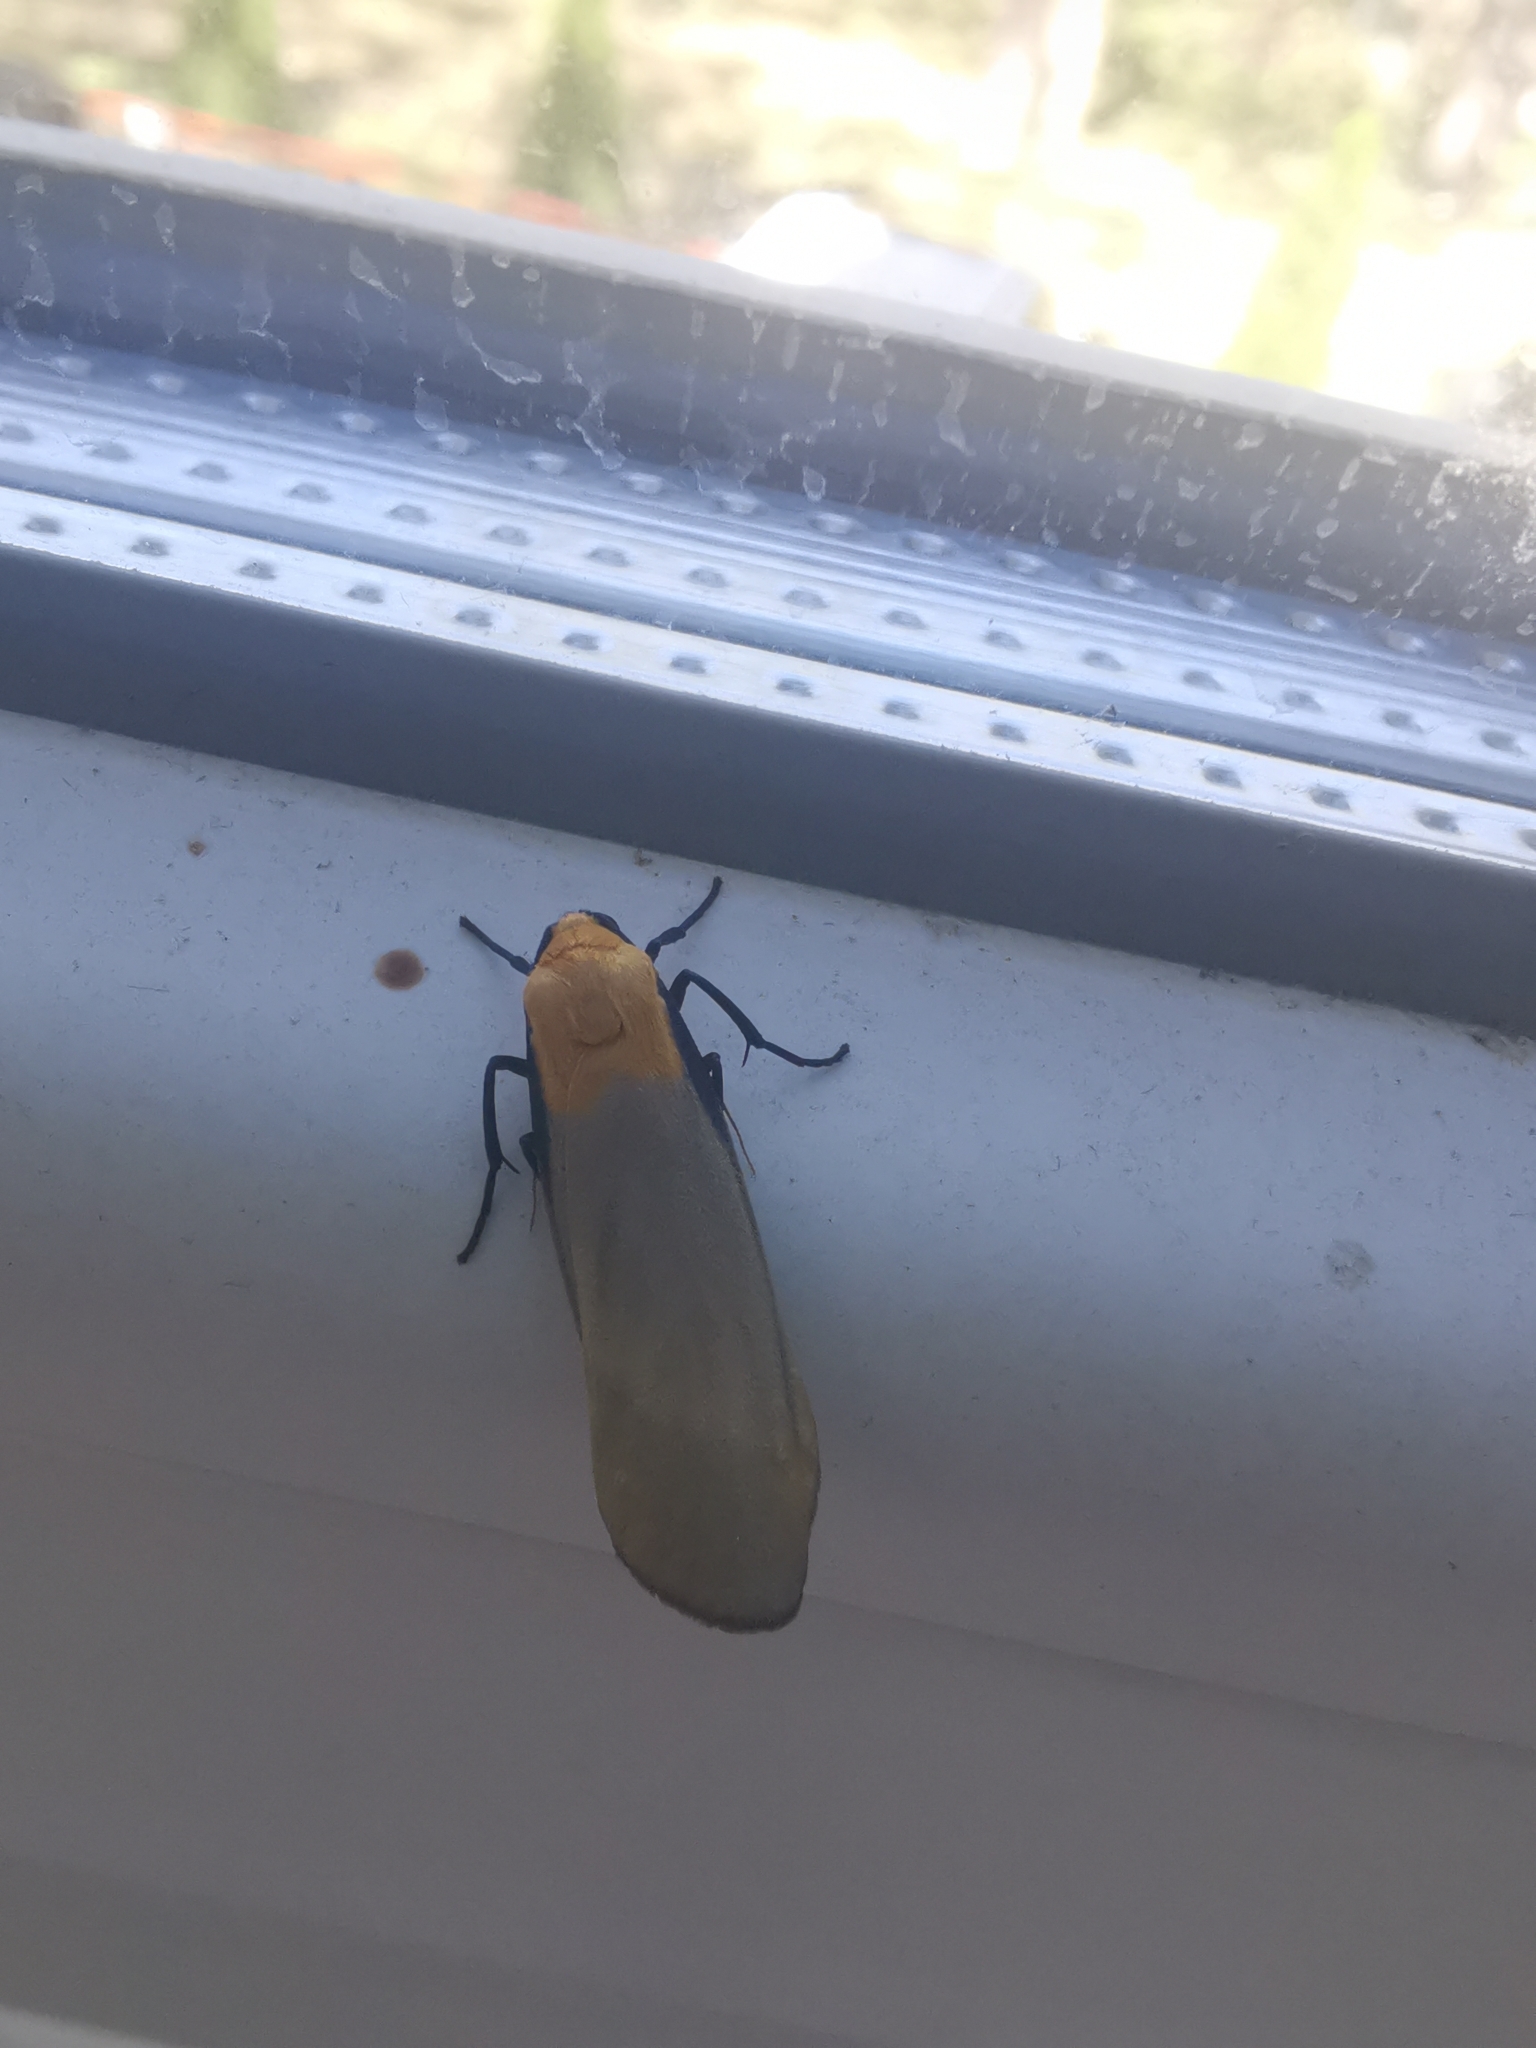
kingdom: Animalia
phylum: Arthropoda
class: Insecta
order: Lepidoptera
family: Erebidae
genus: Lithosia
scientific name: Lithosia quadra
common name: Four-spotted footman
